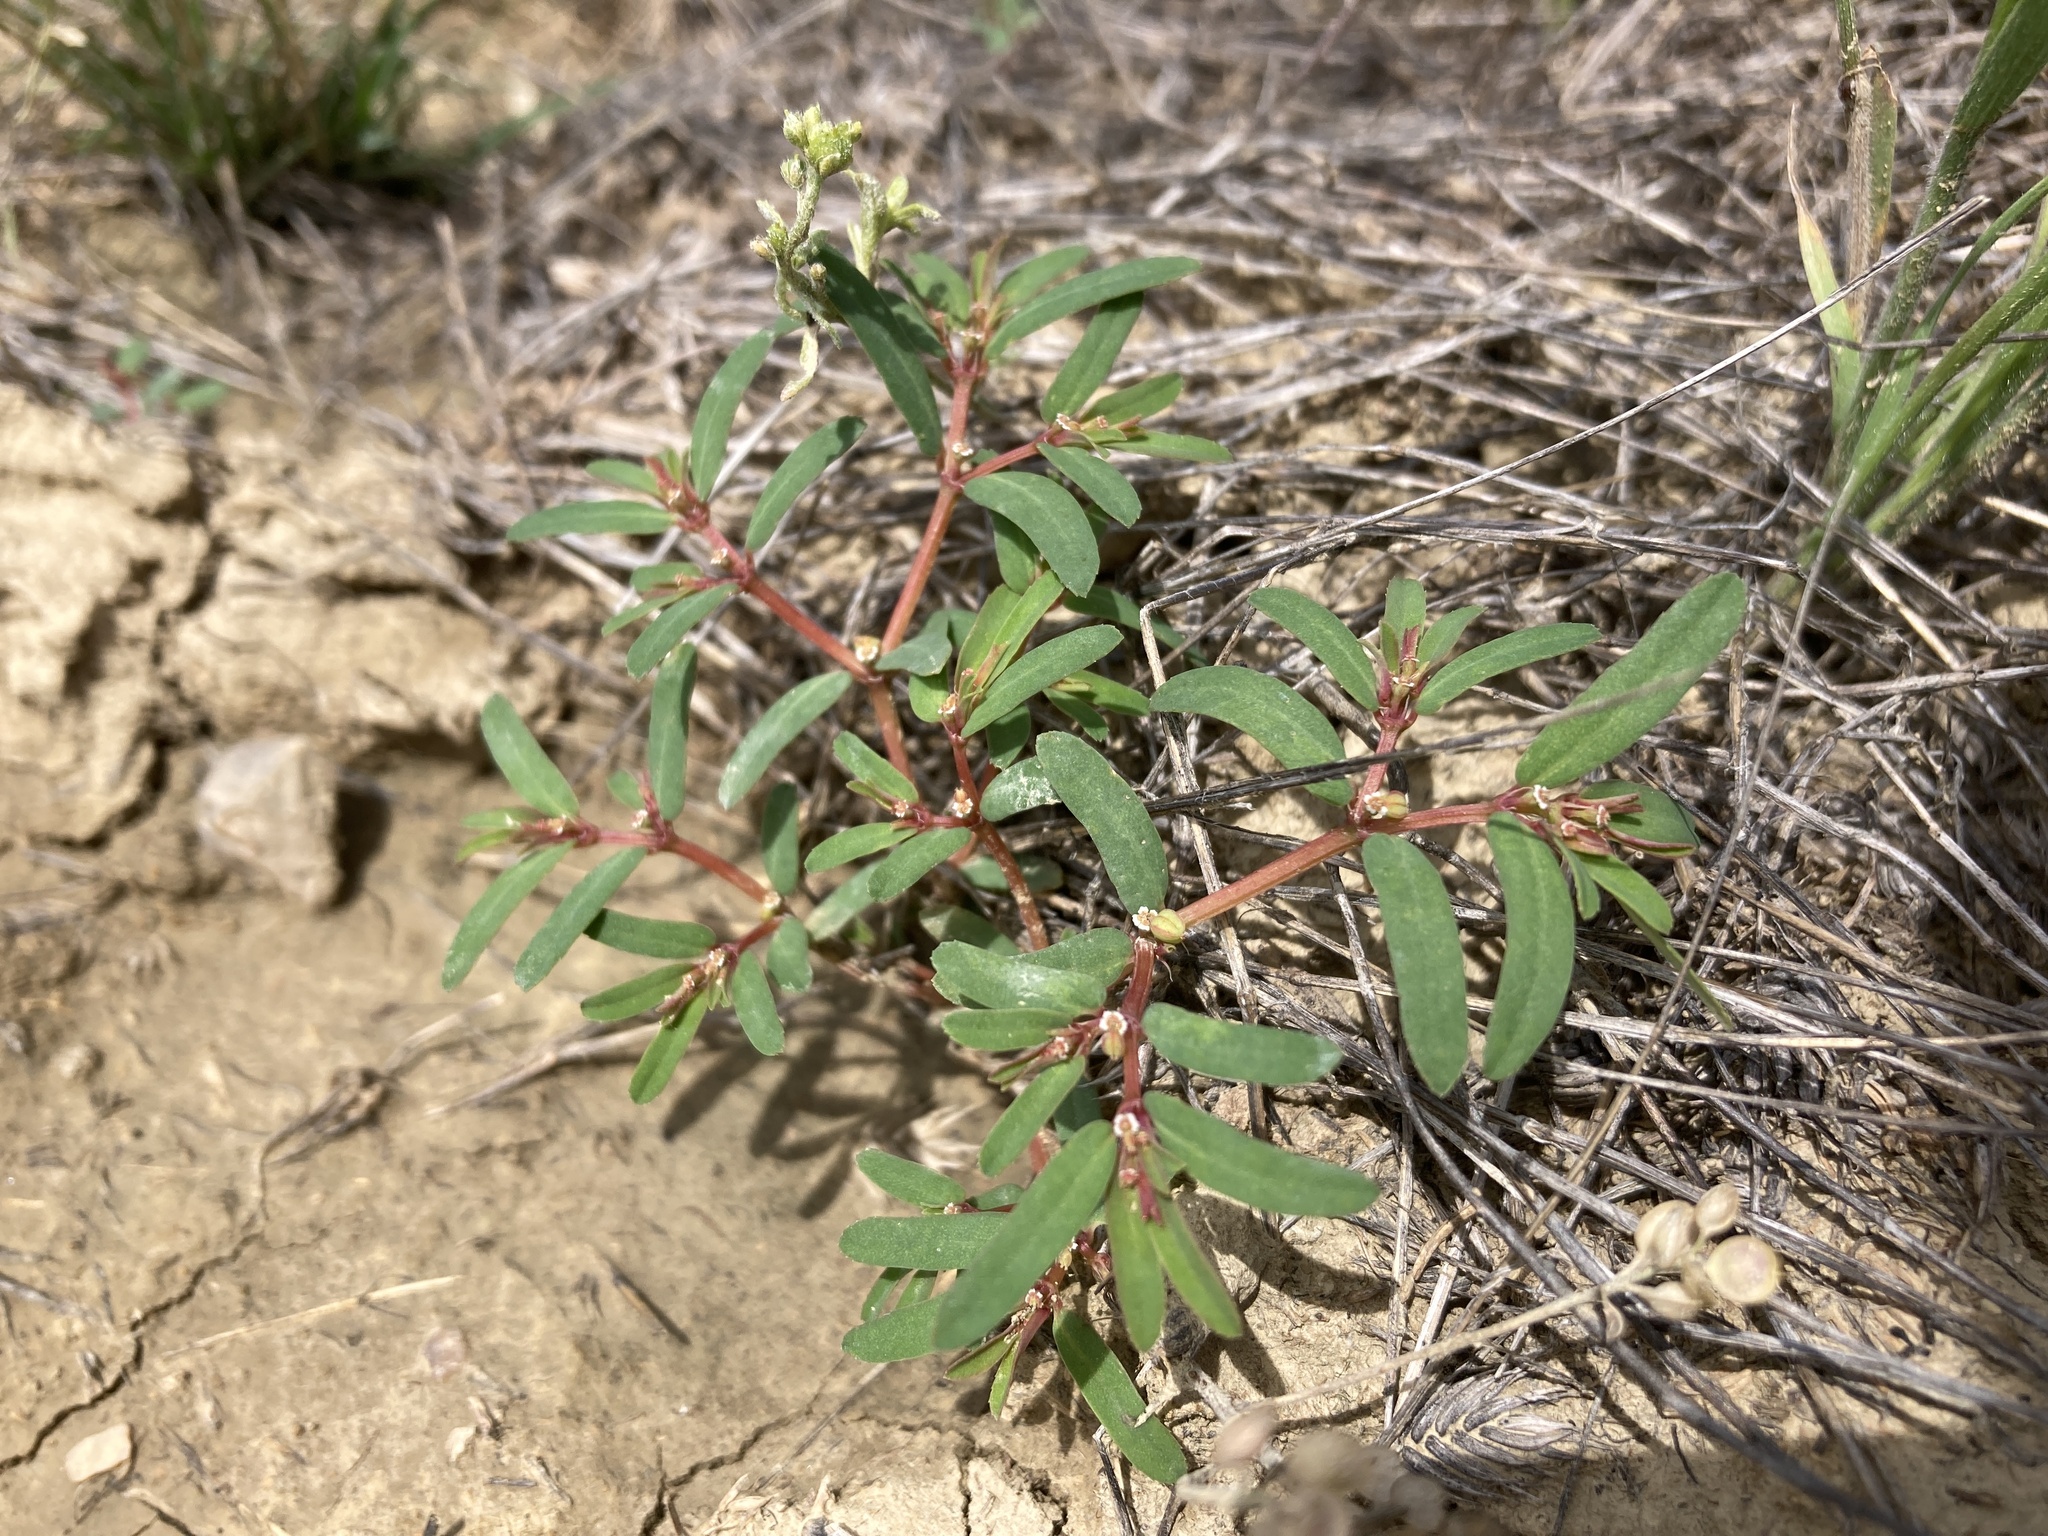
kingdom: Plantae
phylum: Tracheophyta
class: Magnoliopsida
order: Malpighiales
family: Euphorbiaceae
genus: Euphorbia
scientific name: Euphorbia serpillifolia
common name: Thyme-leaf spurge
